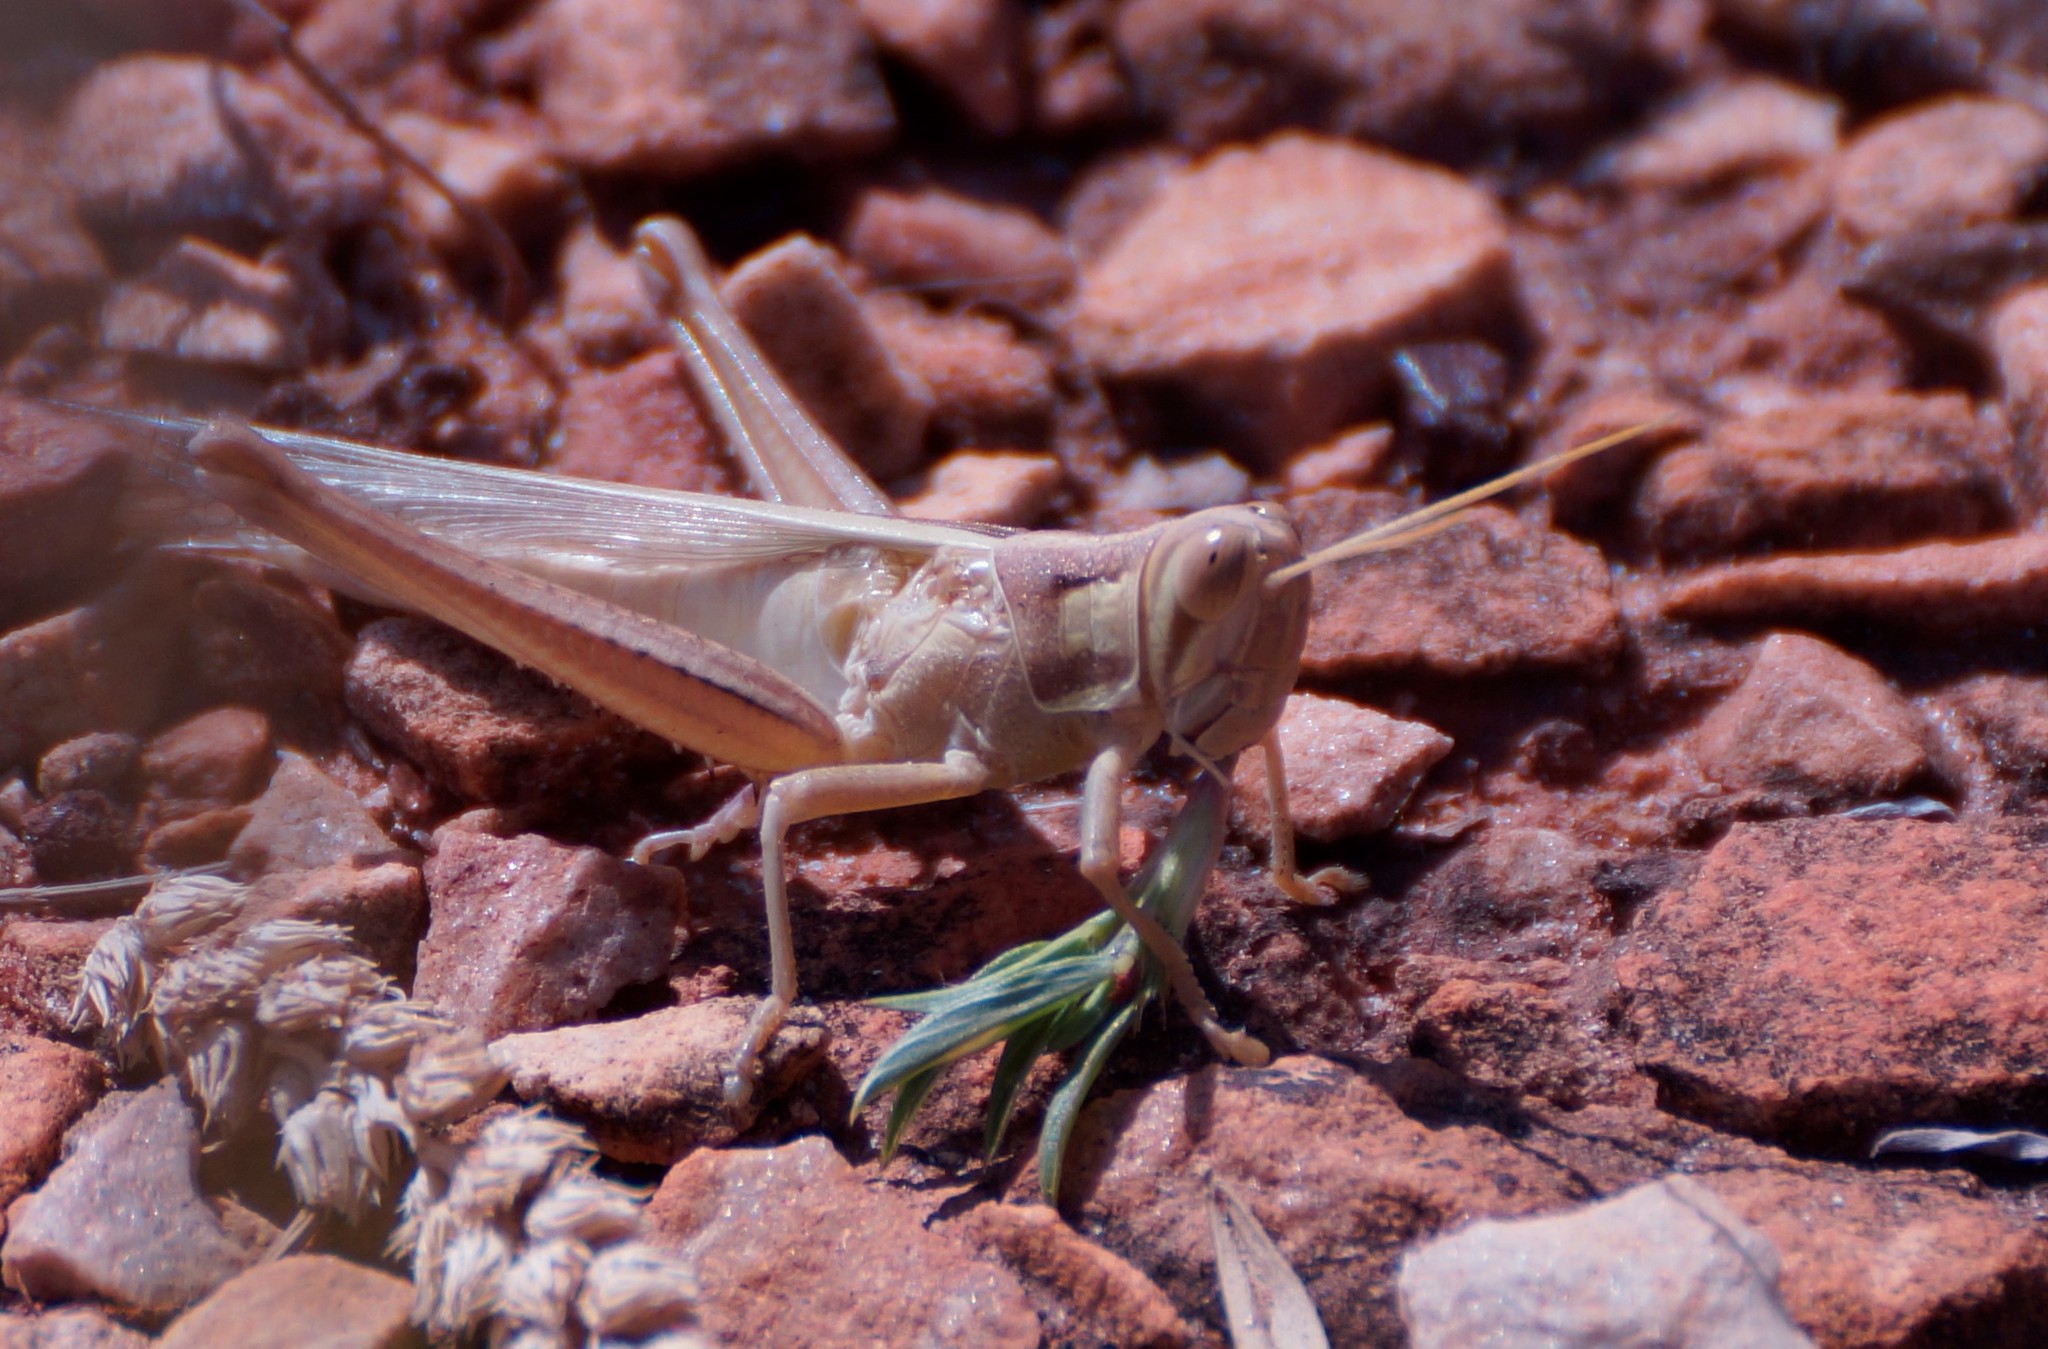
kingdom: Animalia
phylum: Arthropoda
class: Insecta
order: Orthoptera
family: Acrididae
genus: Austracris
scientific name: Austracris guttulosa
